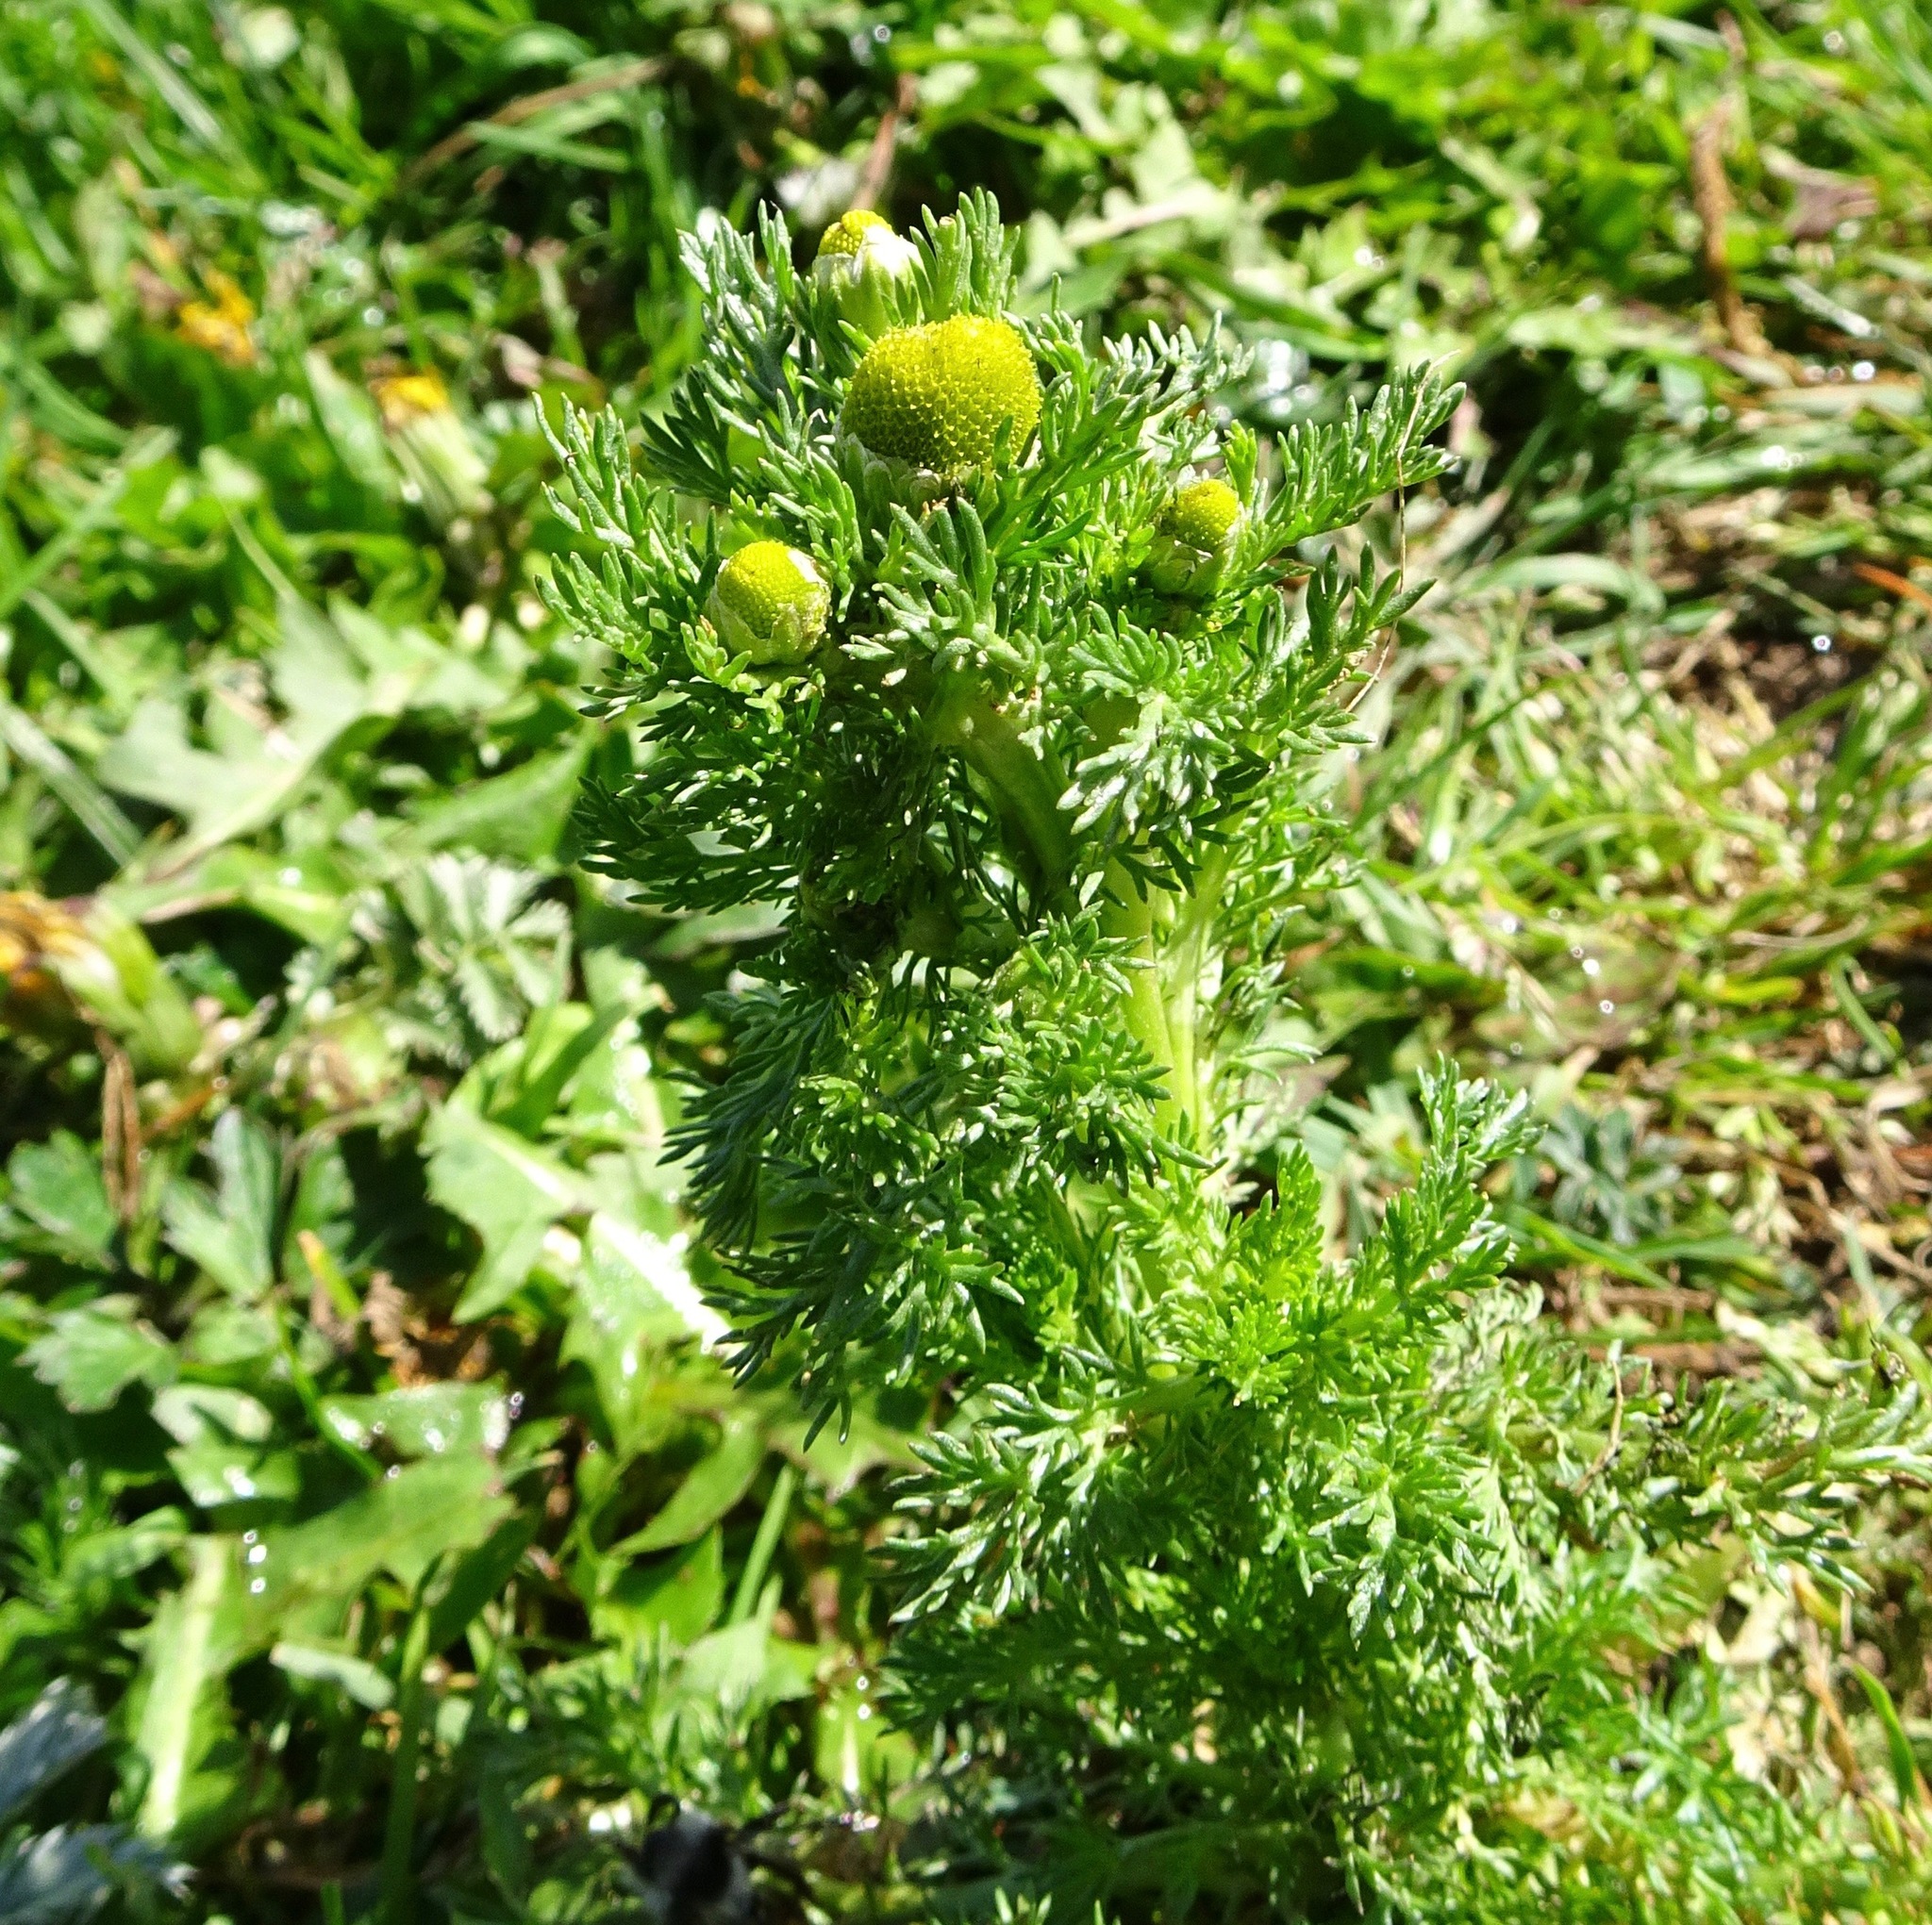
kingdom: Plantae
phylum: Tracheophyta
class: Magnoliopsida
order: Asterales
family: Asteraceae
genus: Matricaria
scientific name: Matricaria discoidea
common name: Disc mayweed
